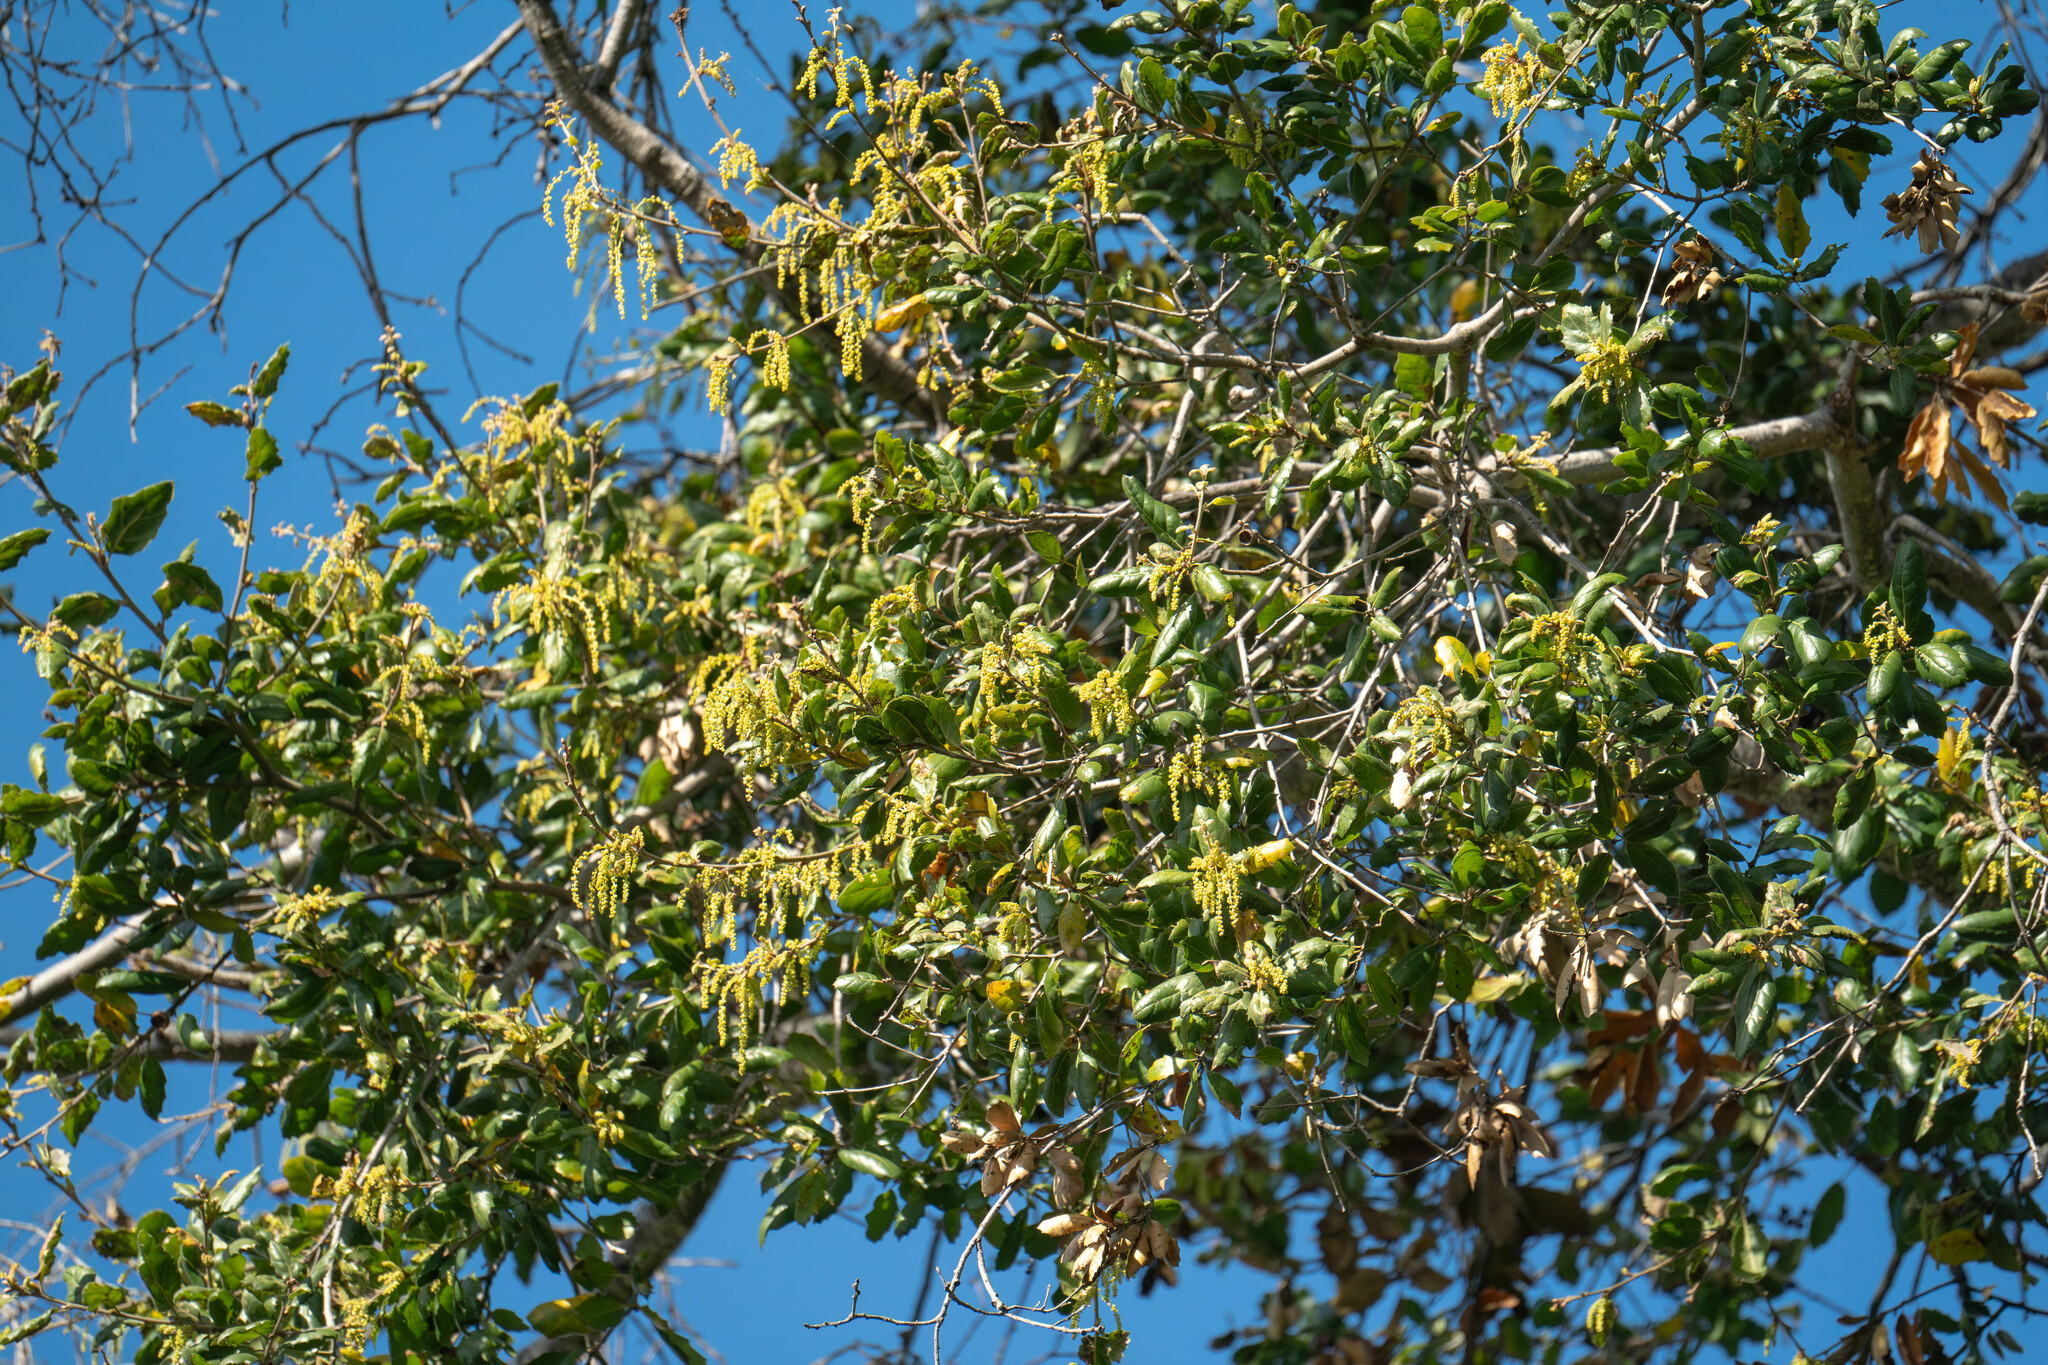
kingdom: Plantae
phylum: Tracheophyta
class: Magnoliopsida
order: Fagales
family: Fagaceae
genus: Quercus
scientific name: Quercus agrifolia
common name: California live oak
